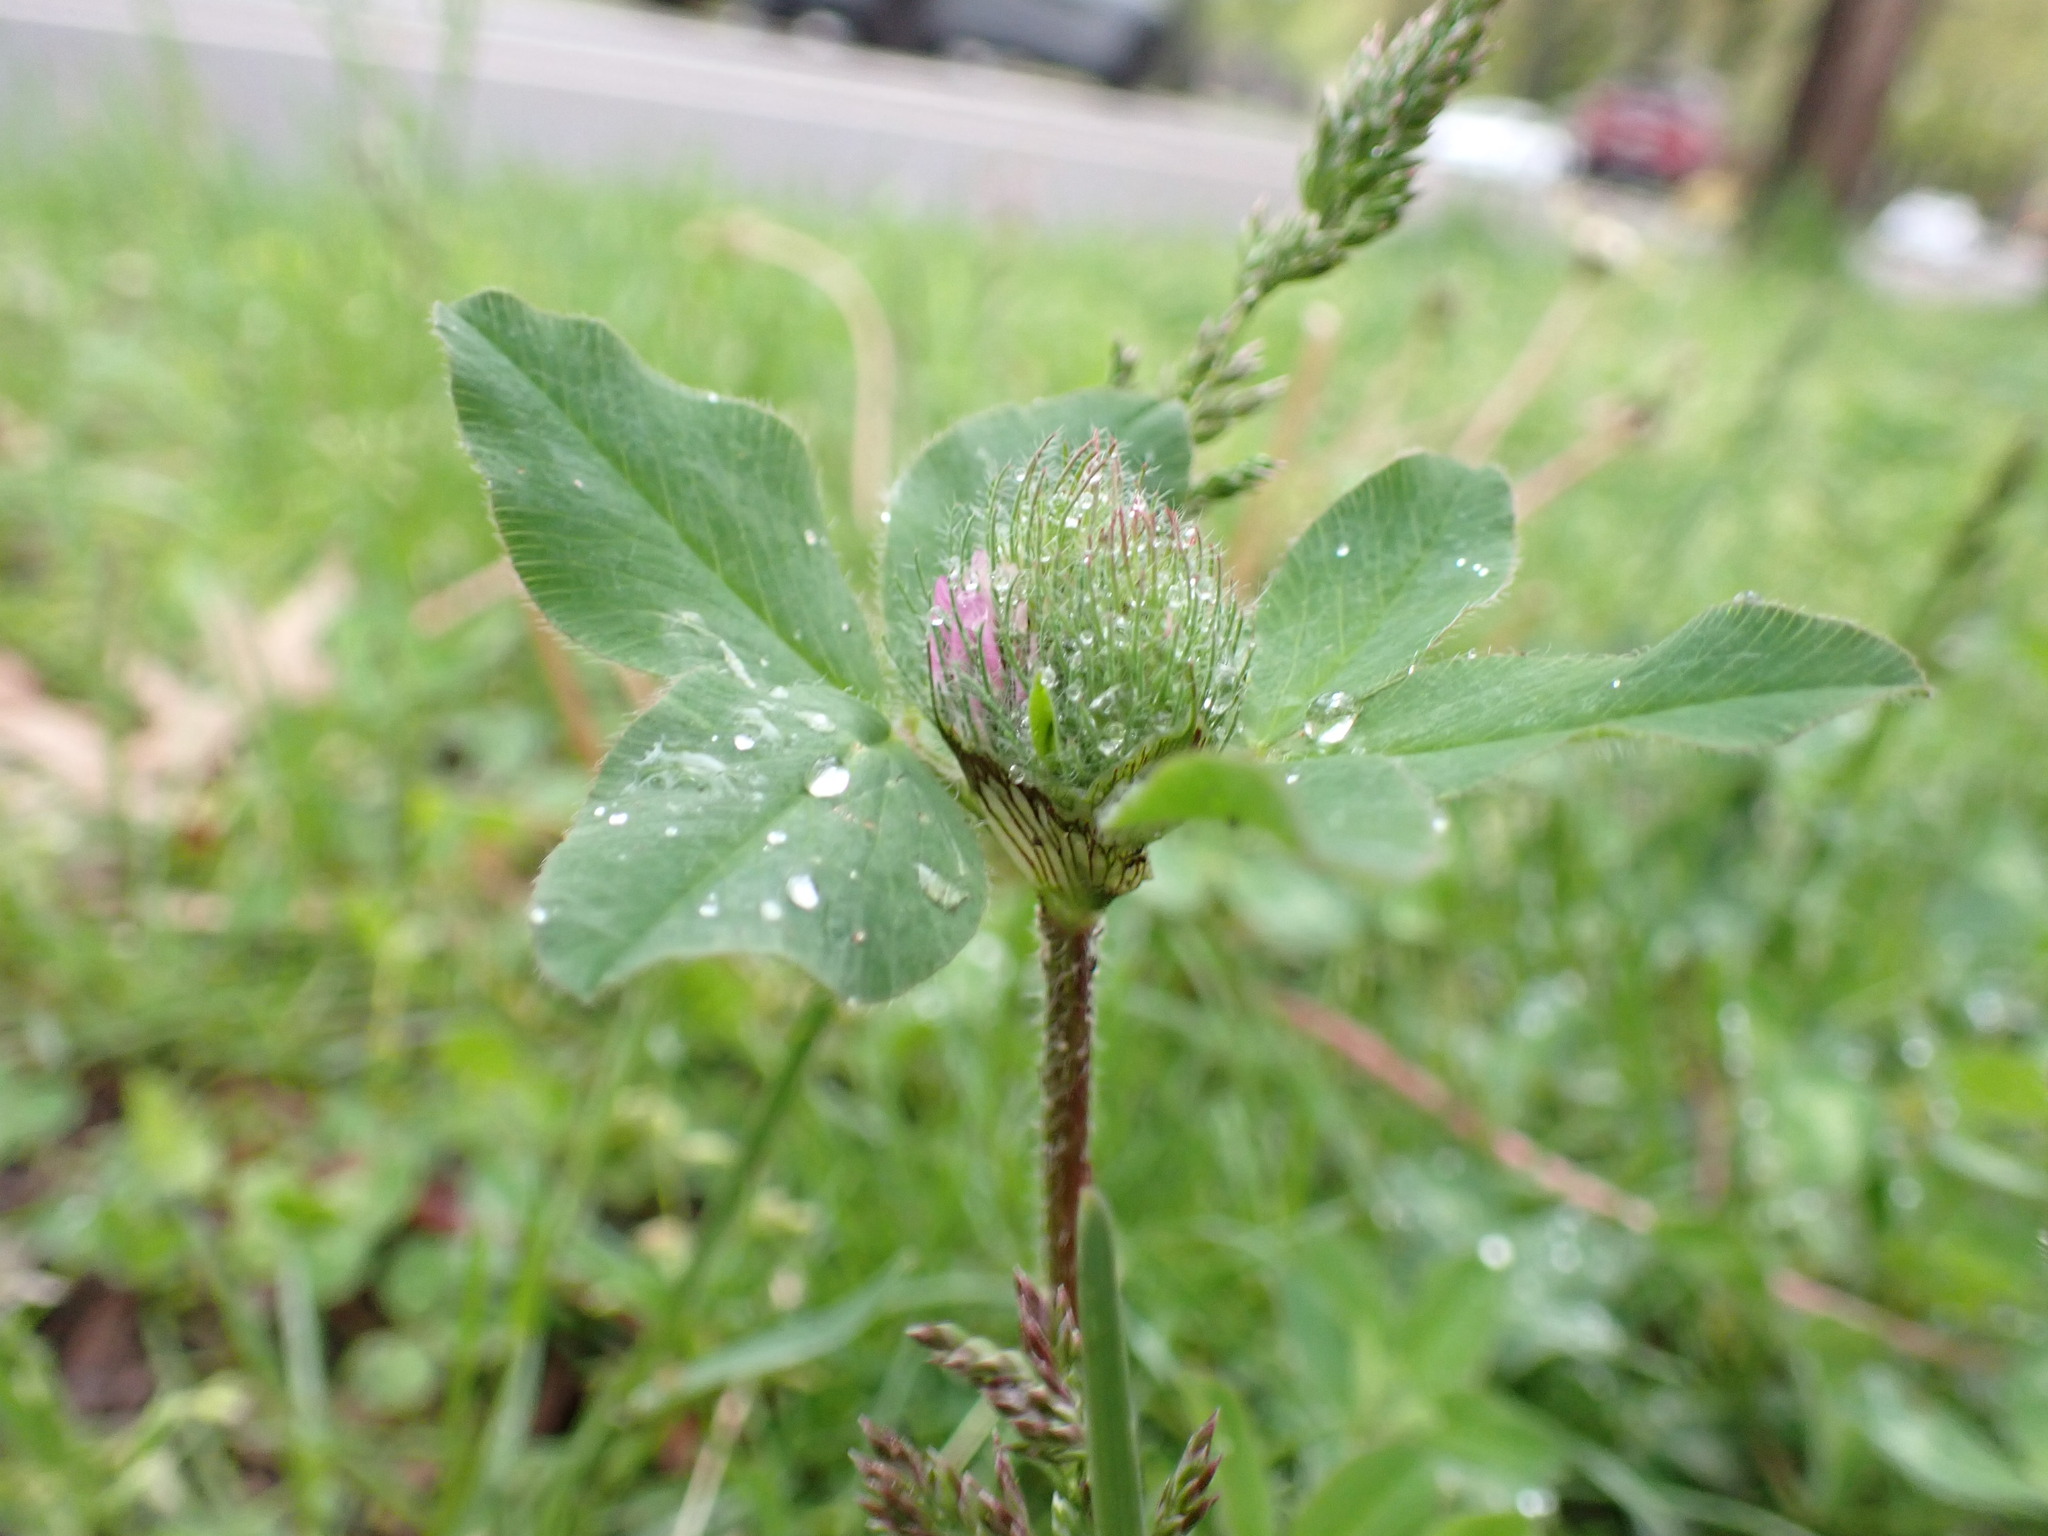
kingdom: Plantae
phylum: Tracheophyta
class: Magnoliopsida
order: Fabales
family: Fabaceae
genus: Trifolium
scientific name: Trifolium pratense
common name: Red clover
